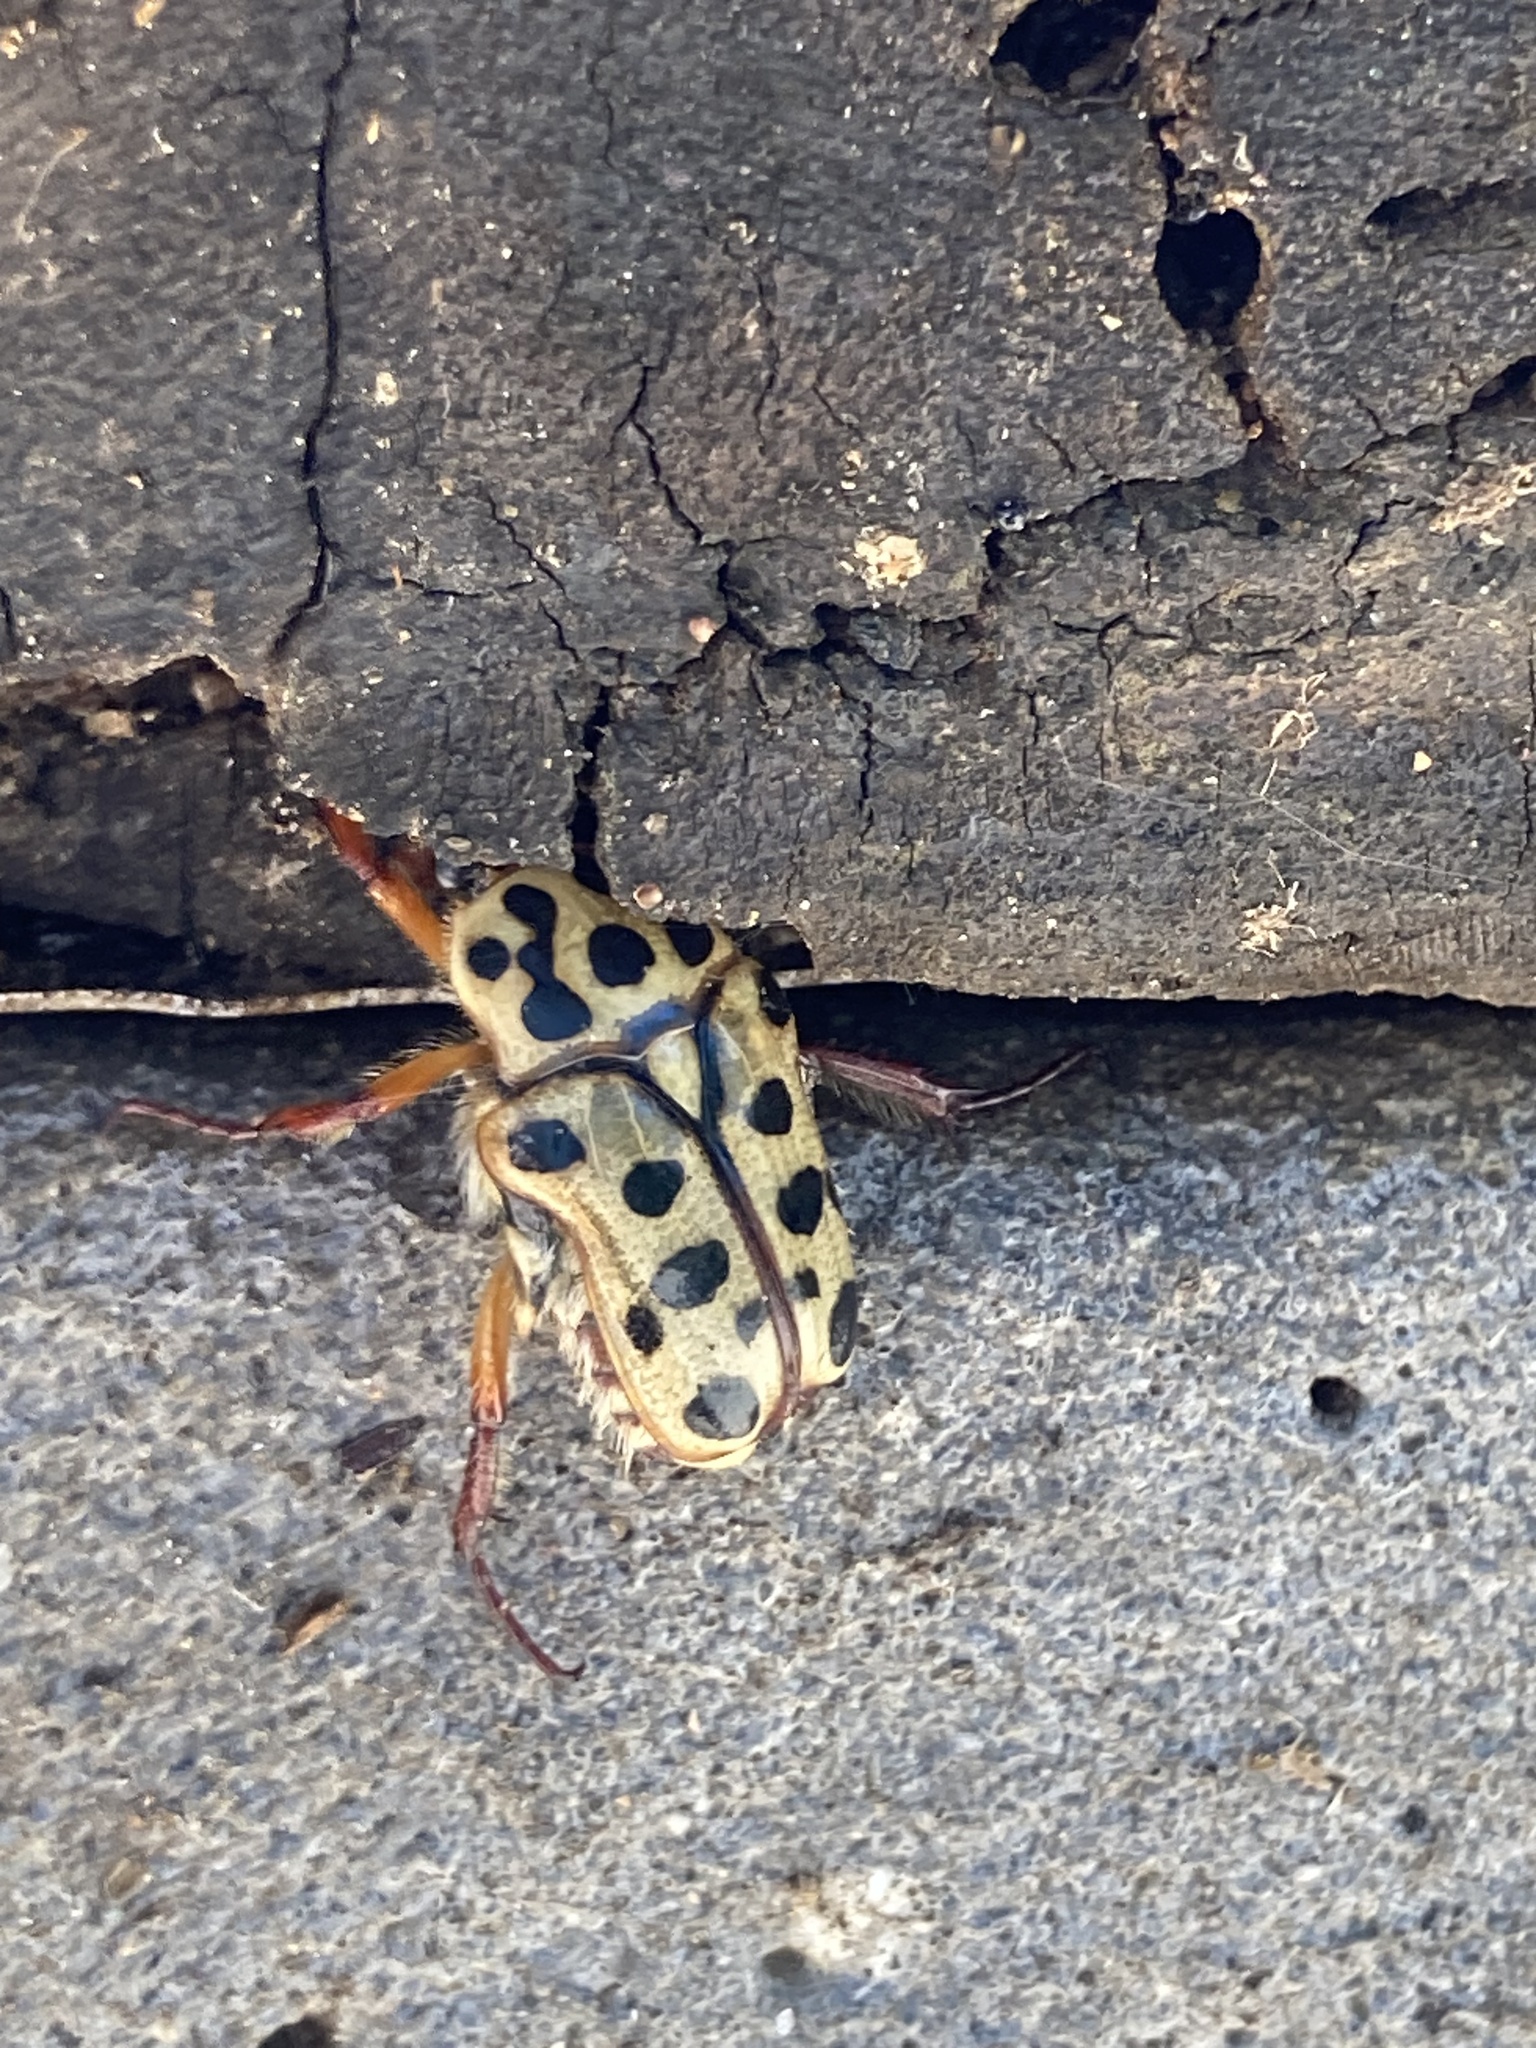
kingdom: Animalia
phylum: Arthropoda
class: Insecta
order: Coleoptera
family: Scarabaeidae
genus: Neorrhina
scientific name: Neorrhina punctatum
